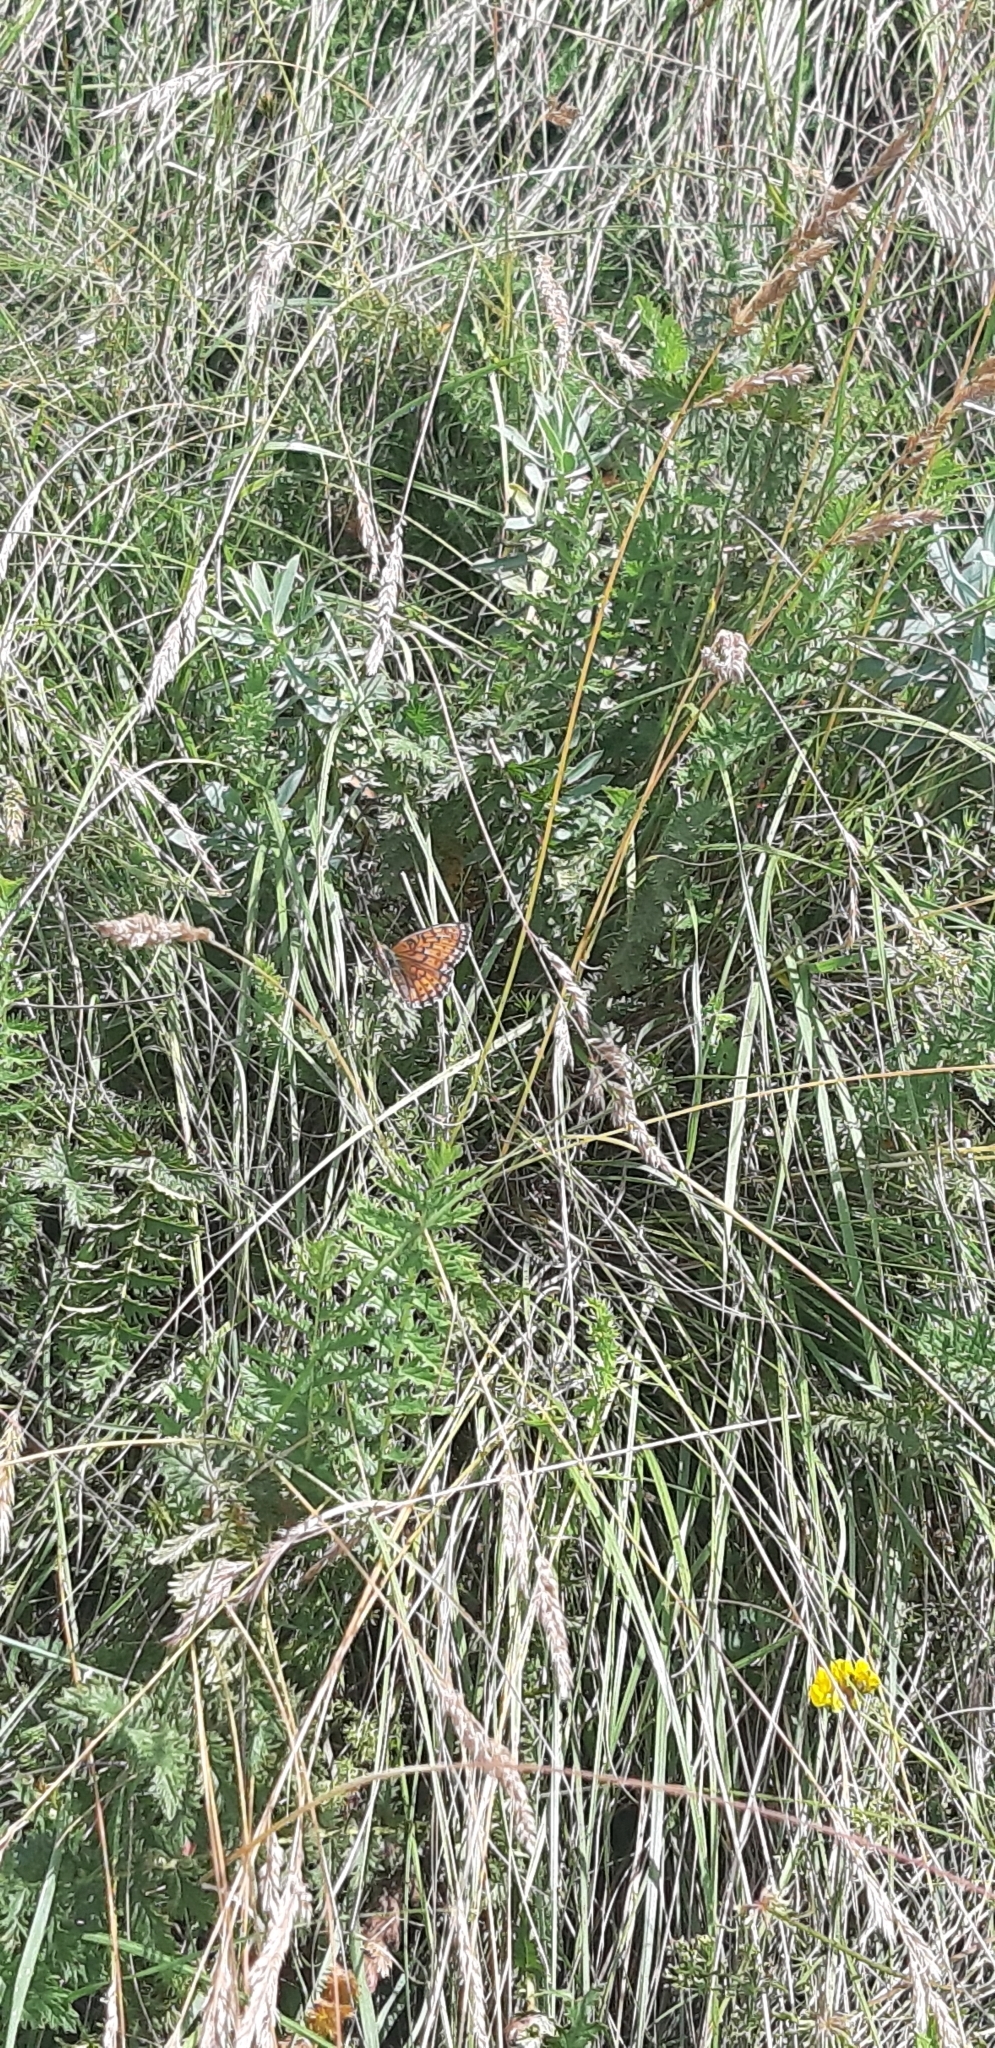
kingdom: Animalia
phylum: Arthropoda
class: Insecta
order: Lepidoptera
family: Nymphalidae
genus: Brenthis
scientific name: Brenthis hecate
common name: Twin-spot fritillary
